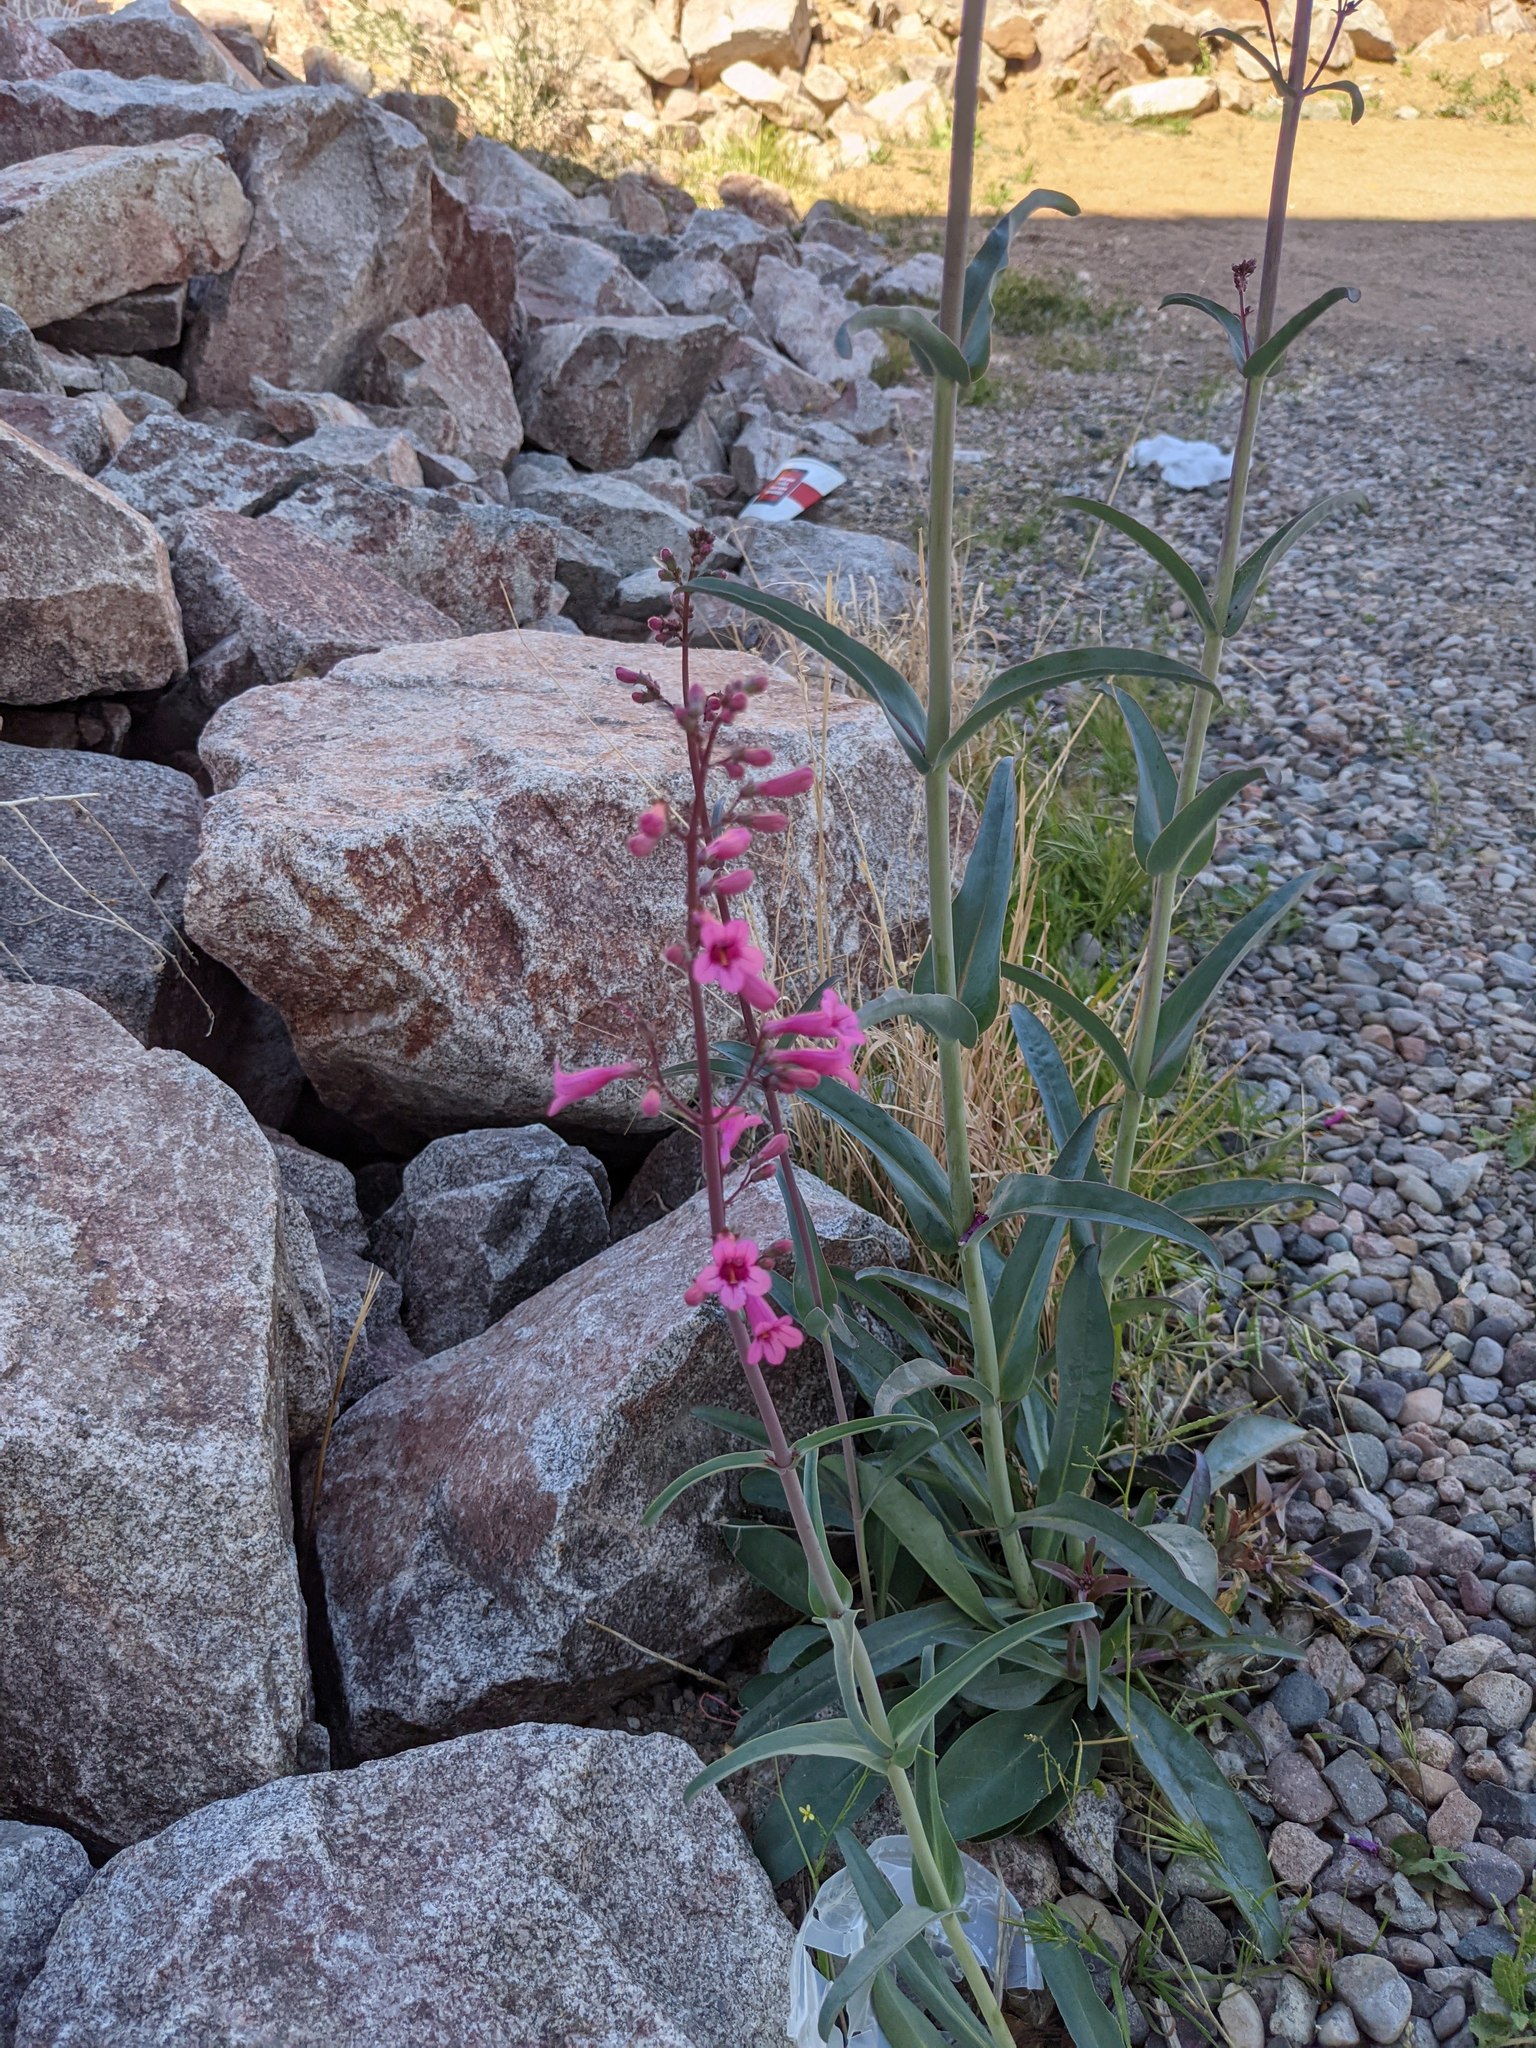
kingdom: Plantae
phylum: Tracheophyta
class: Magnoliopsida
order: Lamiales
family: Plantaginaceae
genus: Penstemon
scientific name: Penstemon parryi
